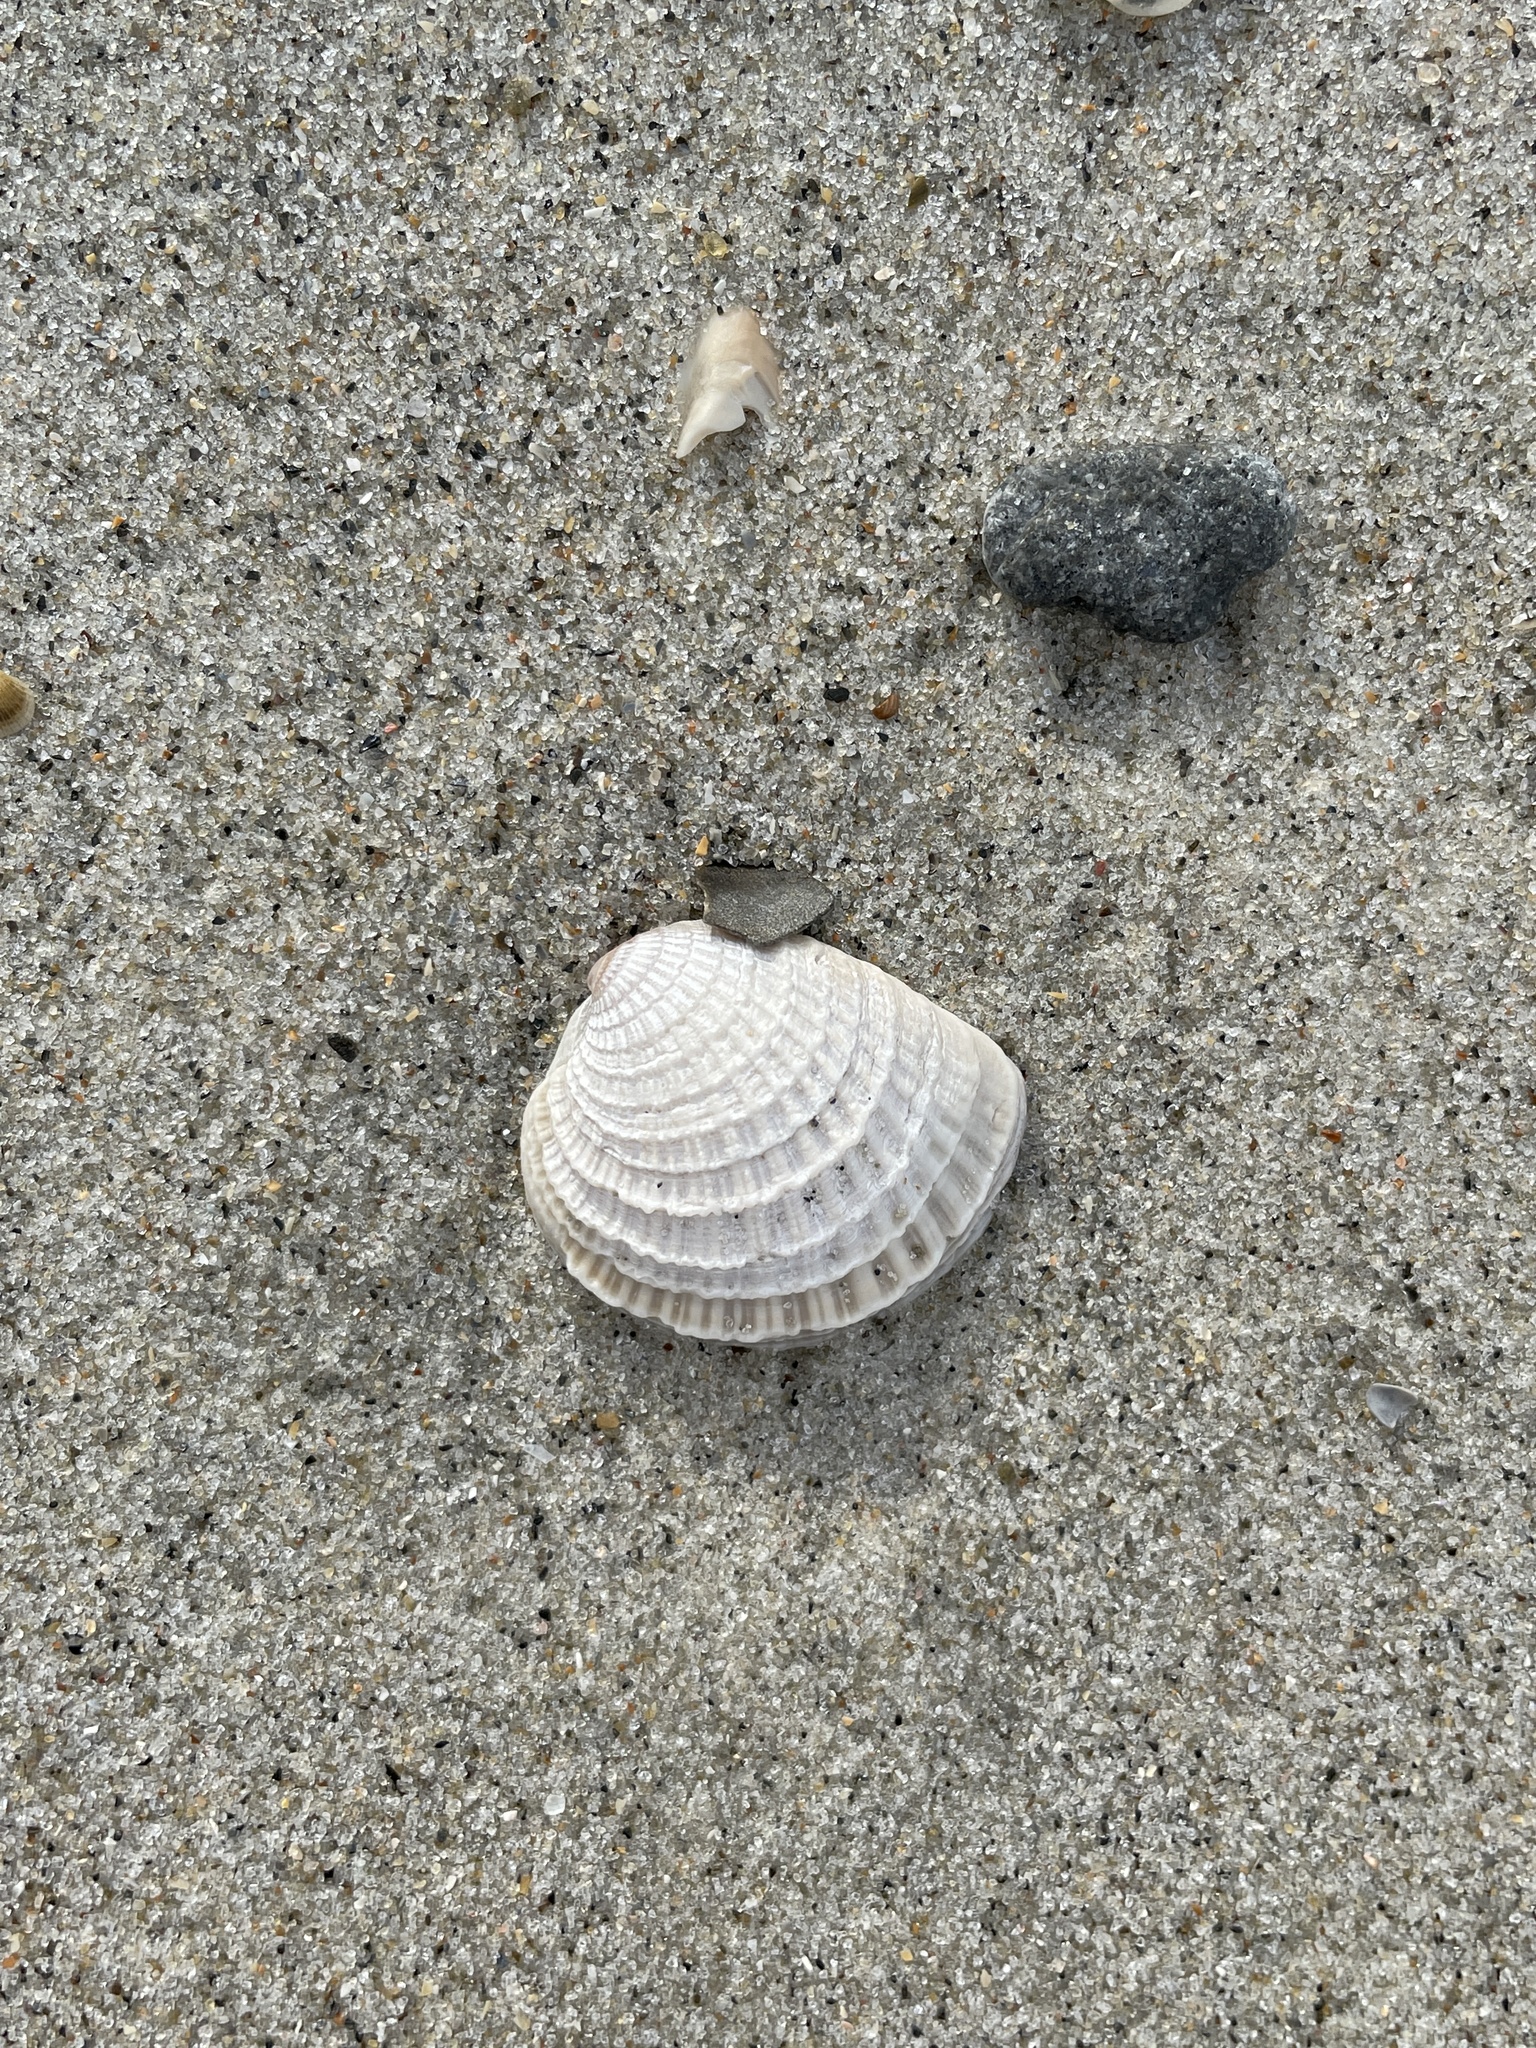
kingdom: Animalia
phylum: Mollusca
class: Bivalvia
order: Venerida
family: Veneridae
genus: Chione
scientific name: Chione elevata
